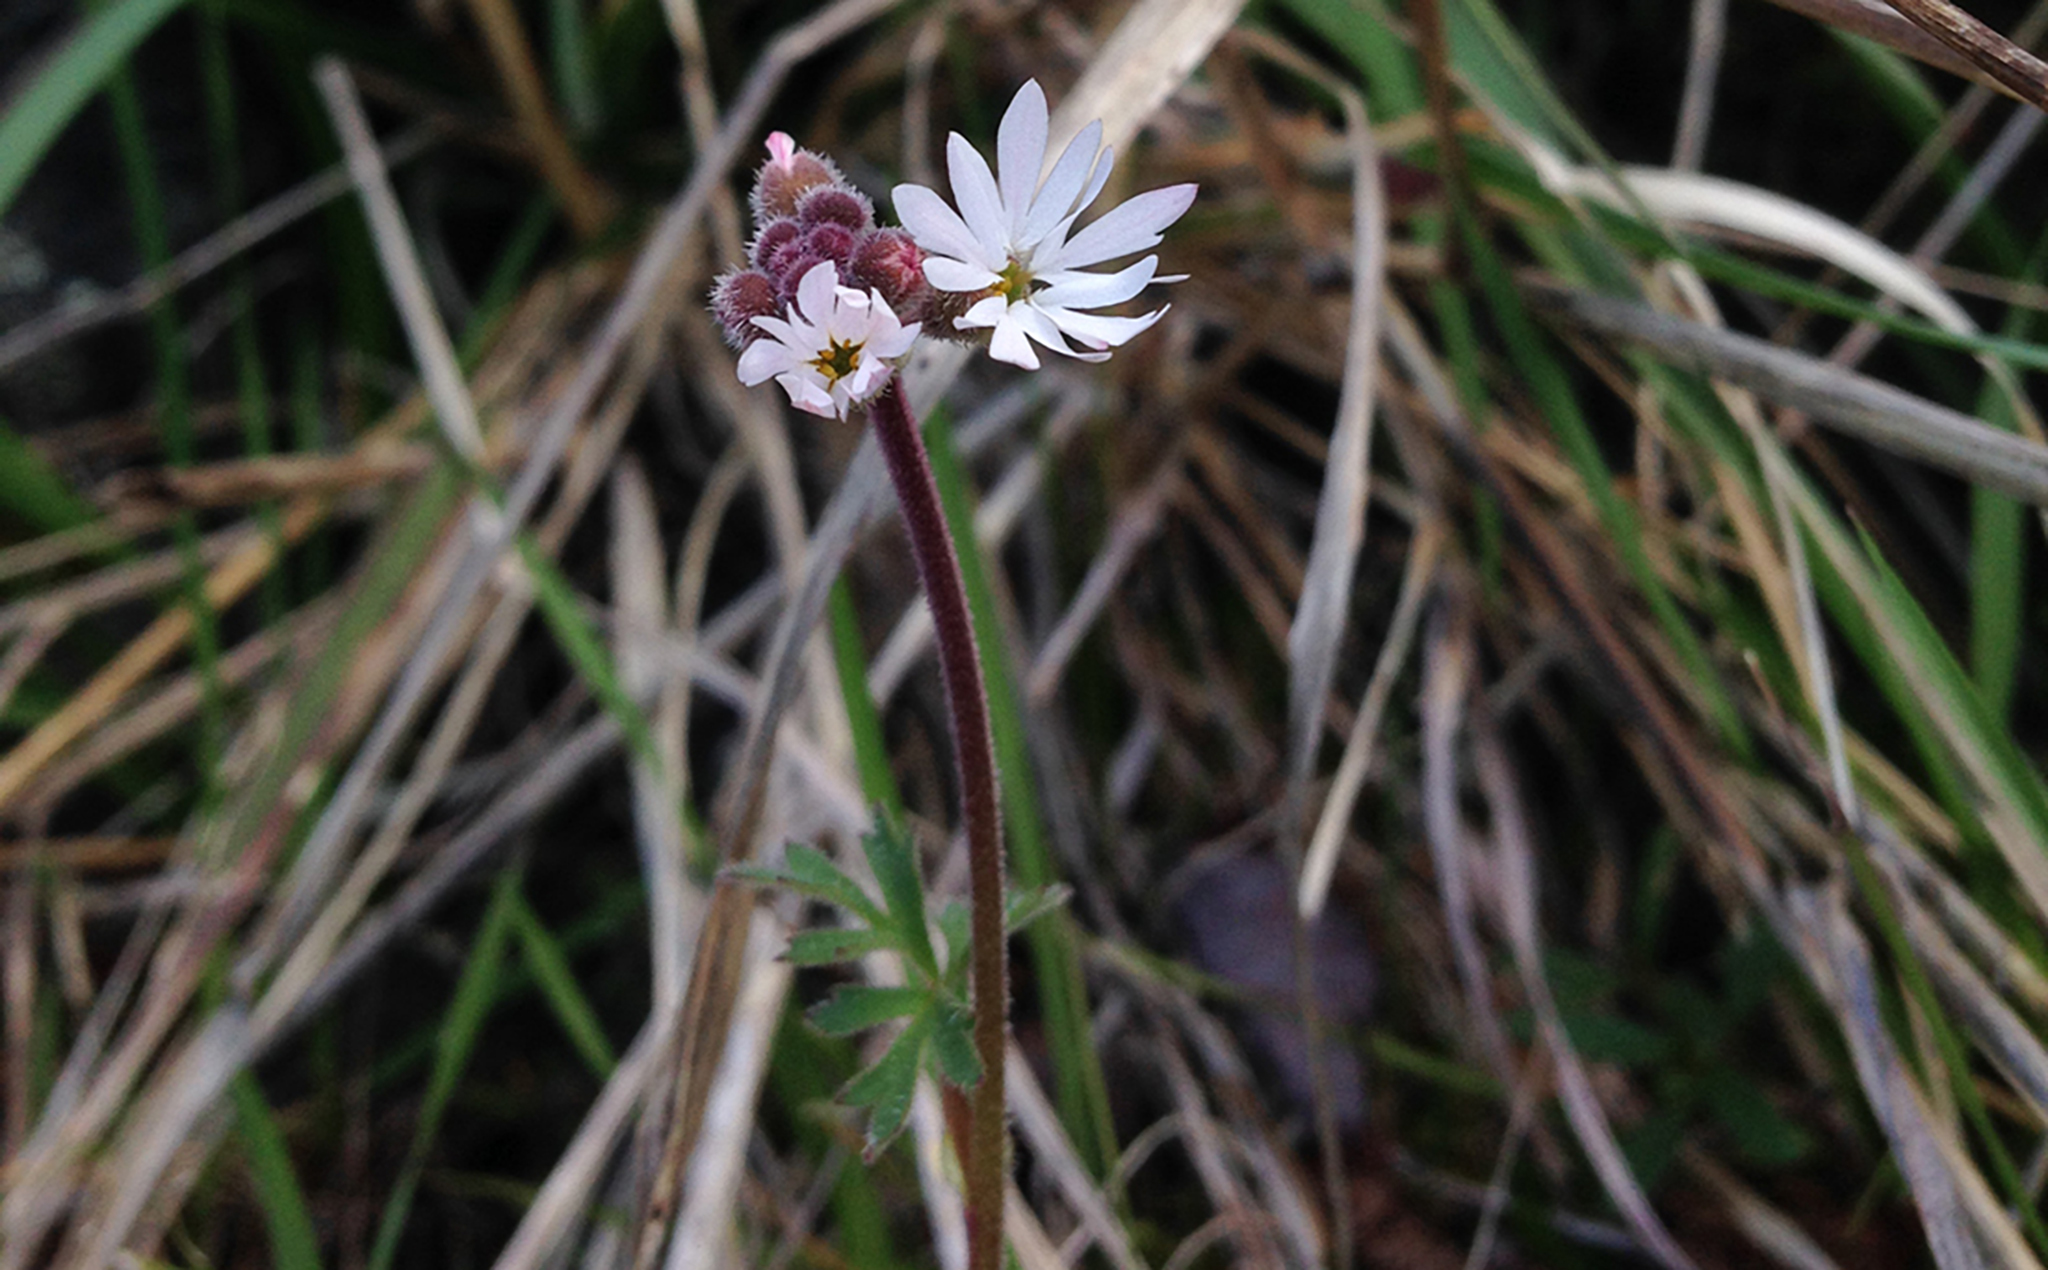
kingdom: Plantae
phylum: Tracheophyta
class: Magnoliopsida
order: Saxifragales
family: Saxifragaceae
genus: Lithophragma
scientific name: Lithophragma parviflorum
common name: Small-flowered fringe-cup
